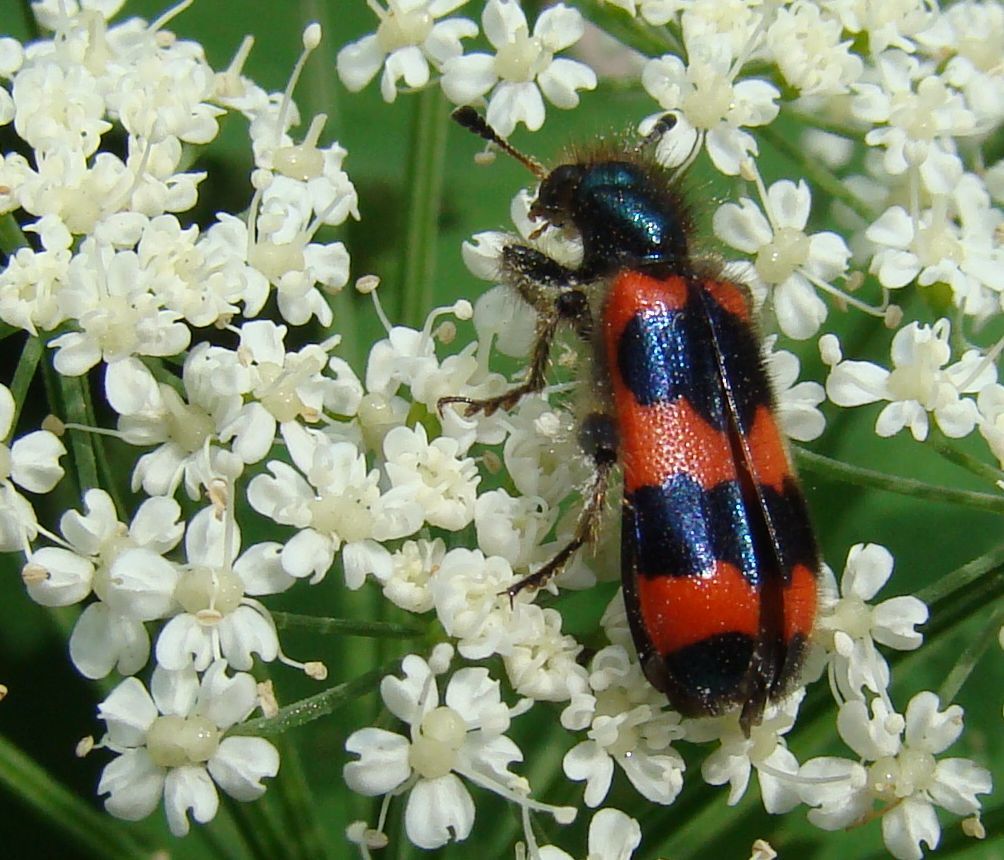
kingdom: Animalia
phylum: Arthropoda
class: Insecta
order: Coleoptera
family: Cleridae
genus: Trichodes
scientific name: Trichodes apiarius
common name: Bee-eating beetle
